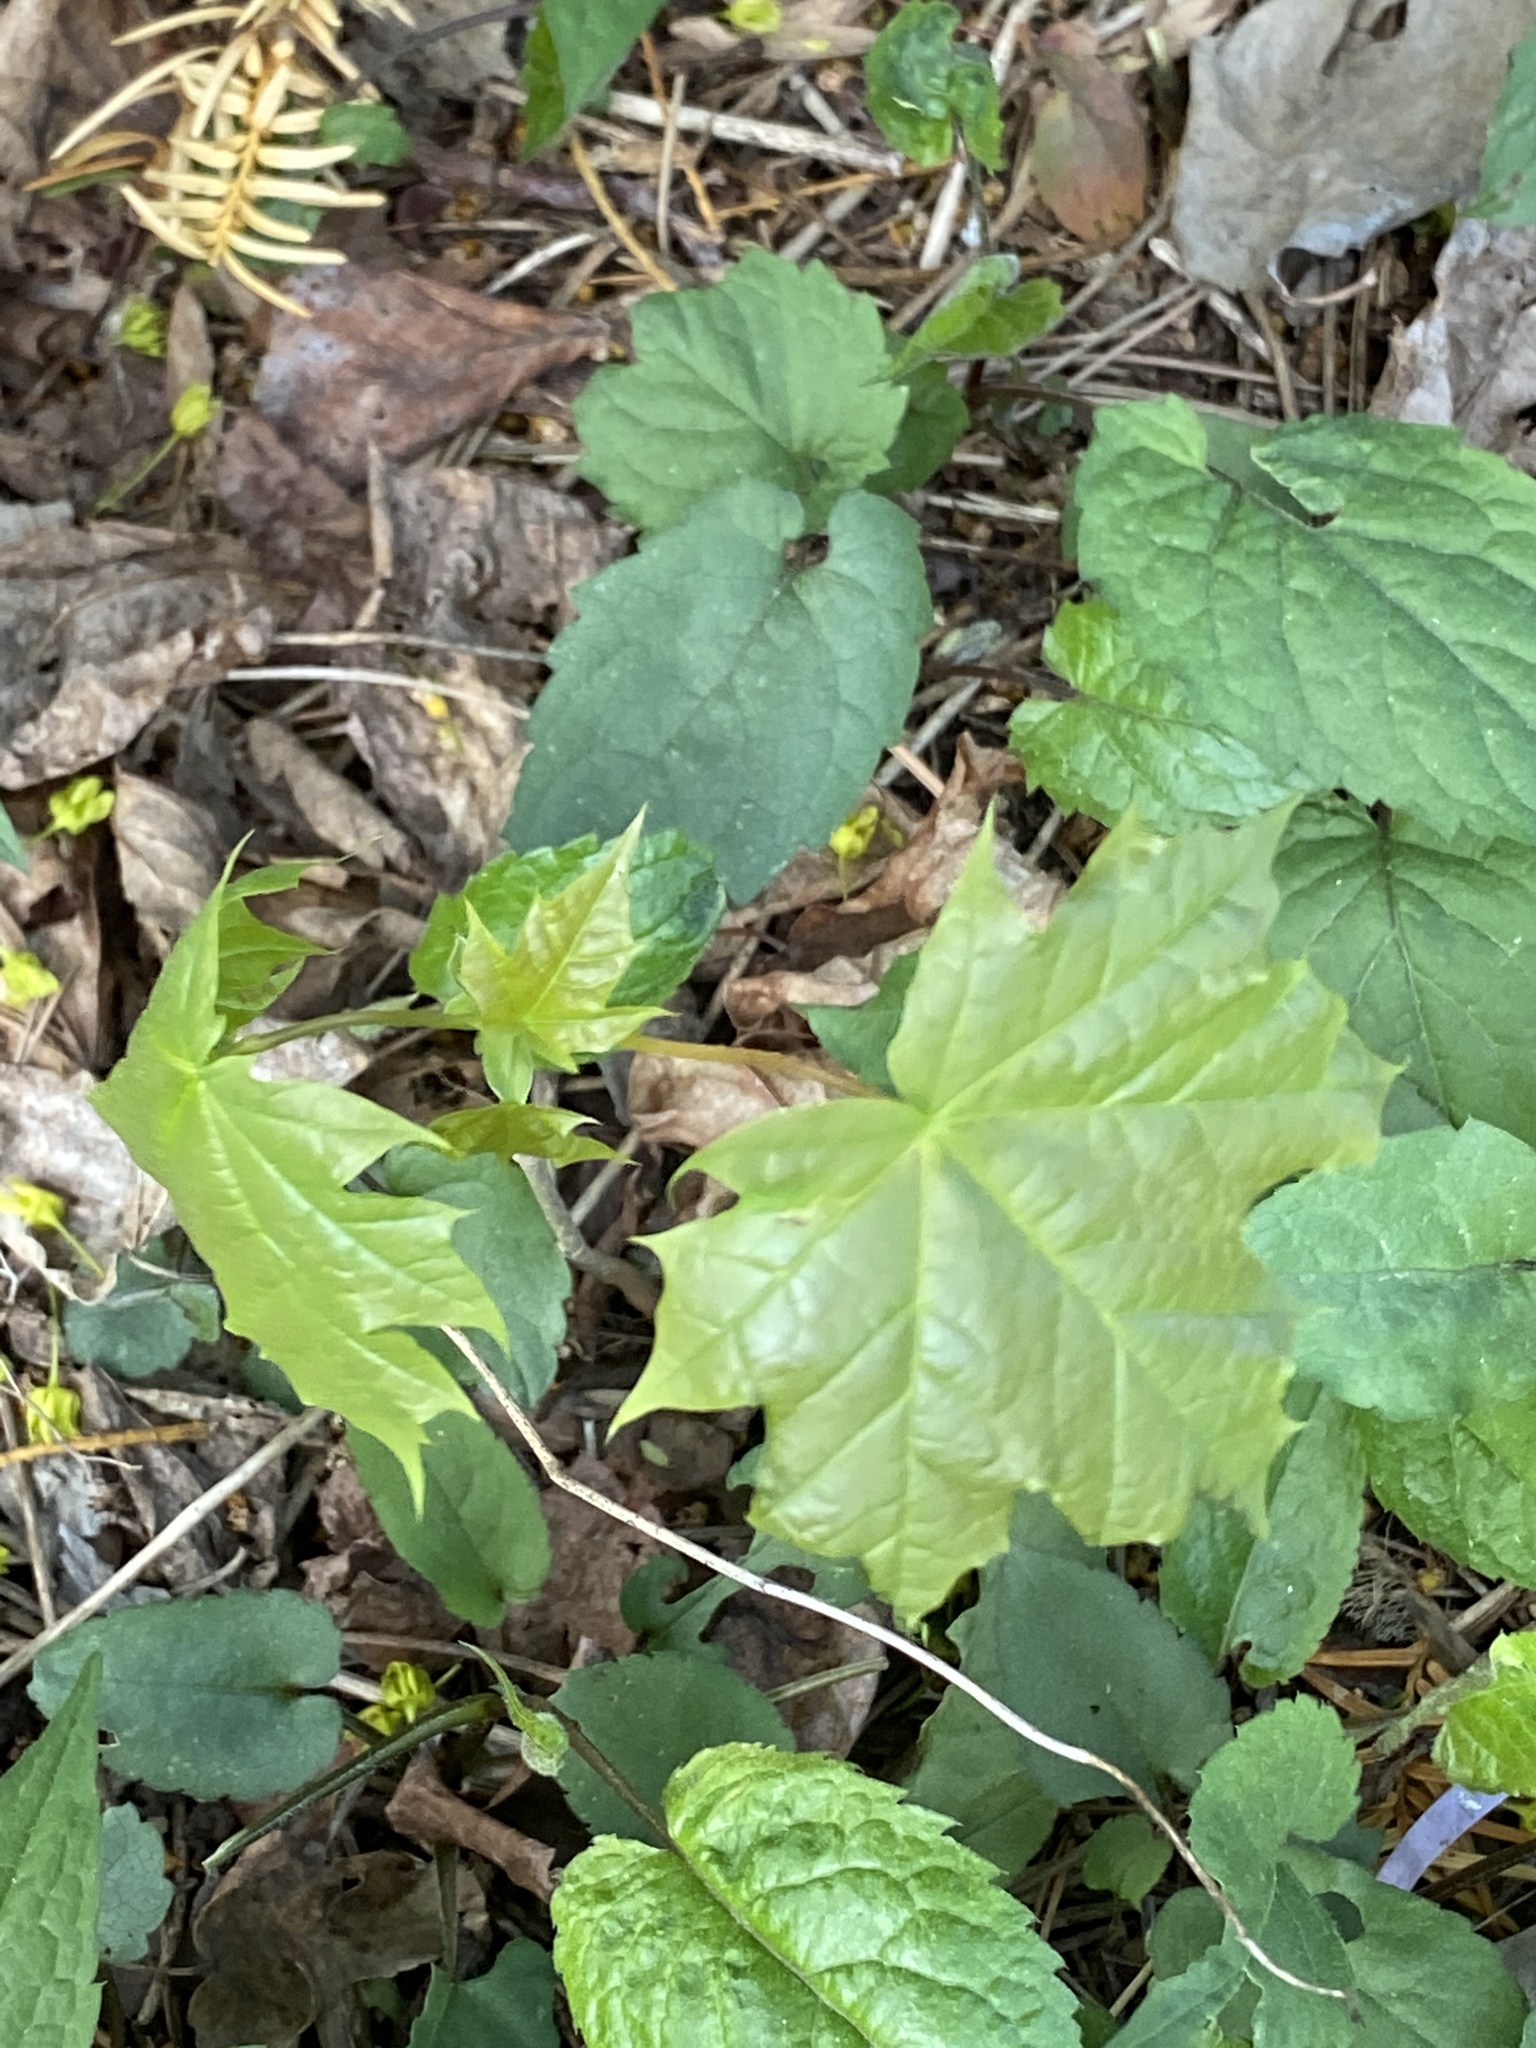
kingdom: Plantae
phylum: Tracheophyta
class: Magnoliopsida
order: Sapindales
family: Sapindaceae
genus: Acer
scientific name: Acer platanoides
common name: Norway maple
